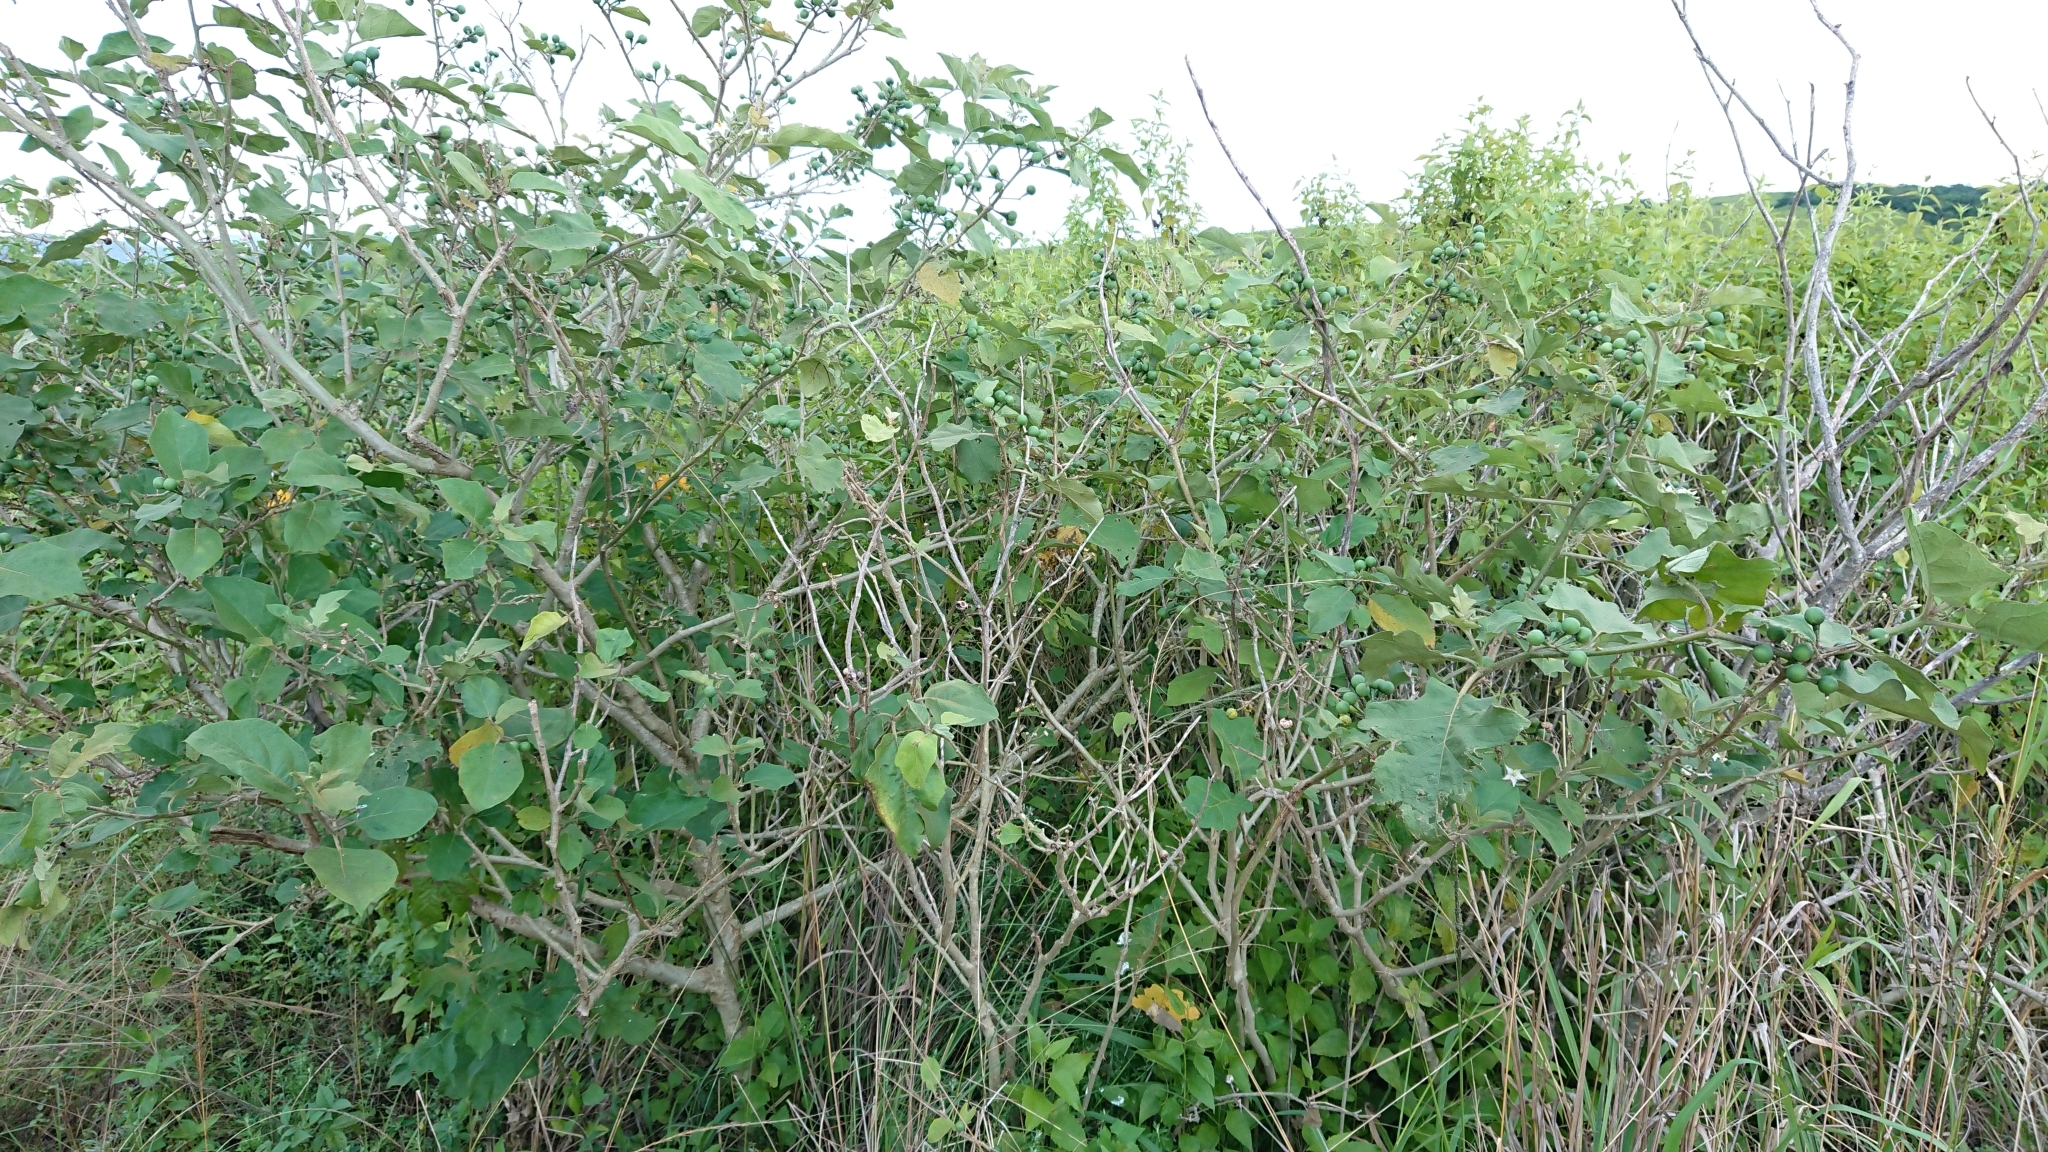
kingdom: Plantae
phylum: Tracheophyta
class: Magnoliopsida
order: Solanales
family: Solanaceae
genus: Solanum
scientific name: Solanum torvum
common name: Turkey berry
